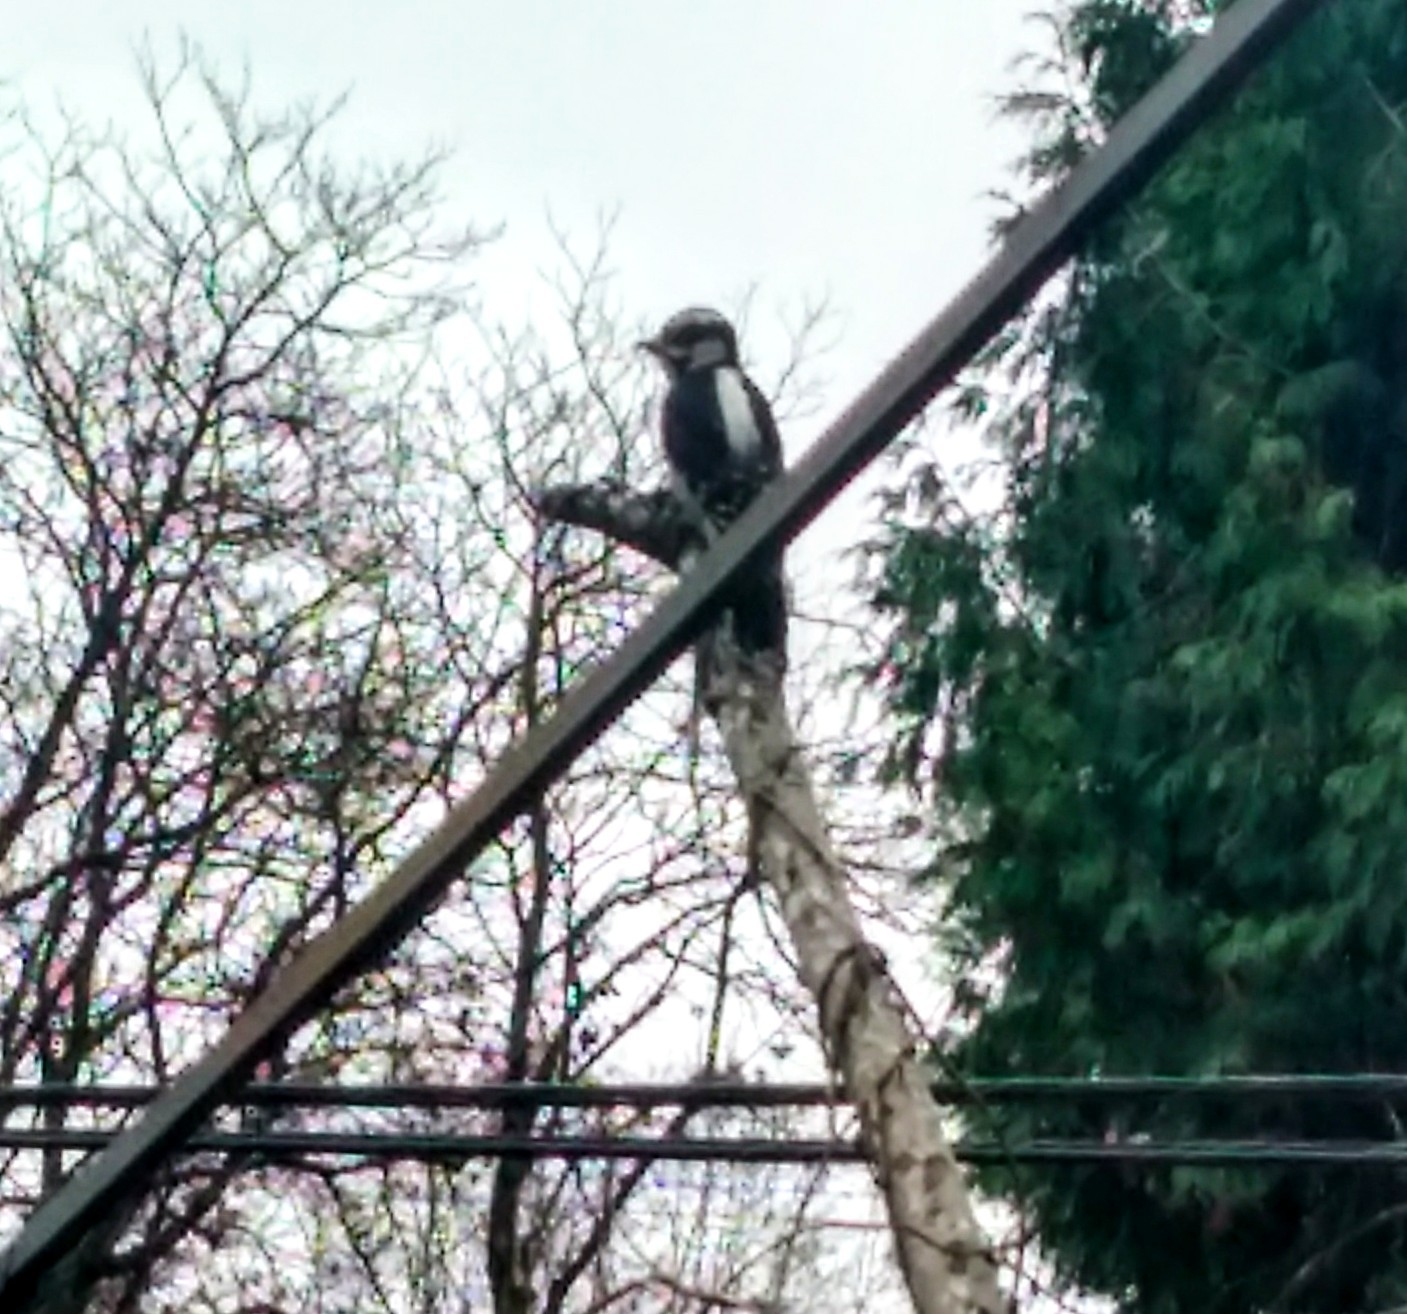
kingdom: Animalia
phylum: Chordata
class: Aves
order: Piciformes
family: Picidae
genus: Dryobates
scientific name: Dryobates pubescens
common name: Downy woodpecker
